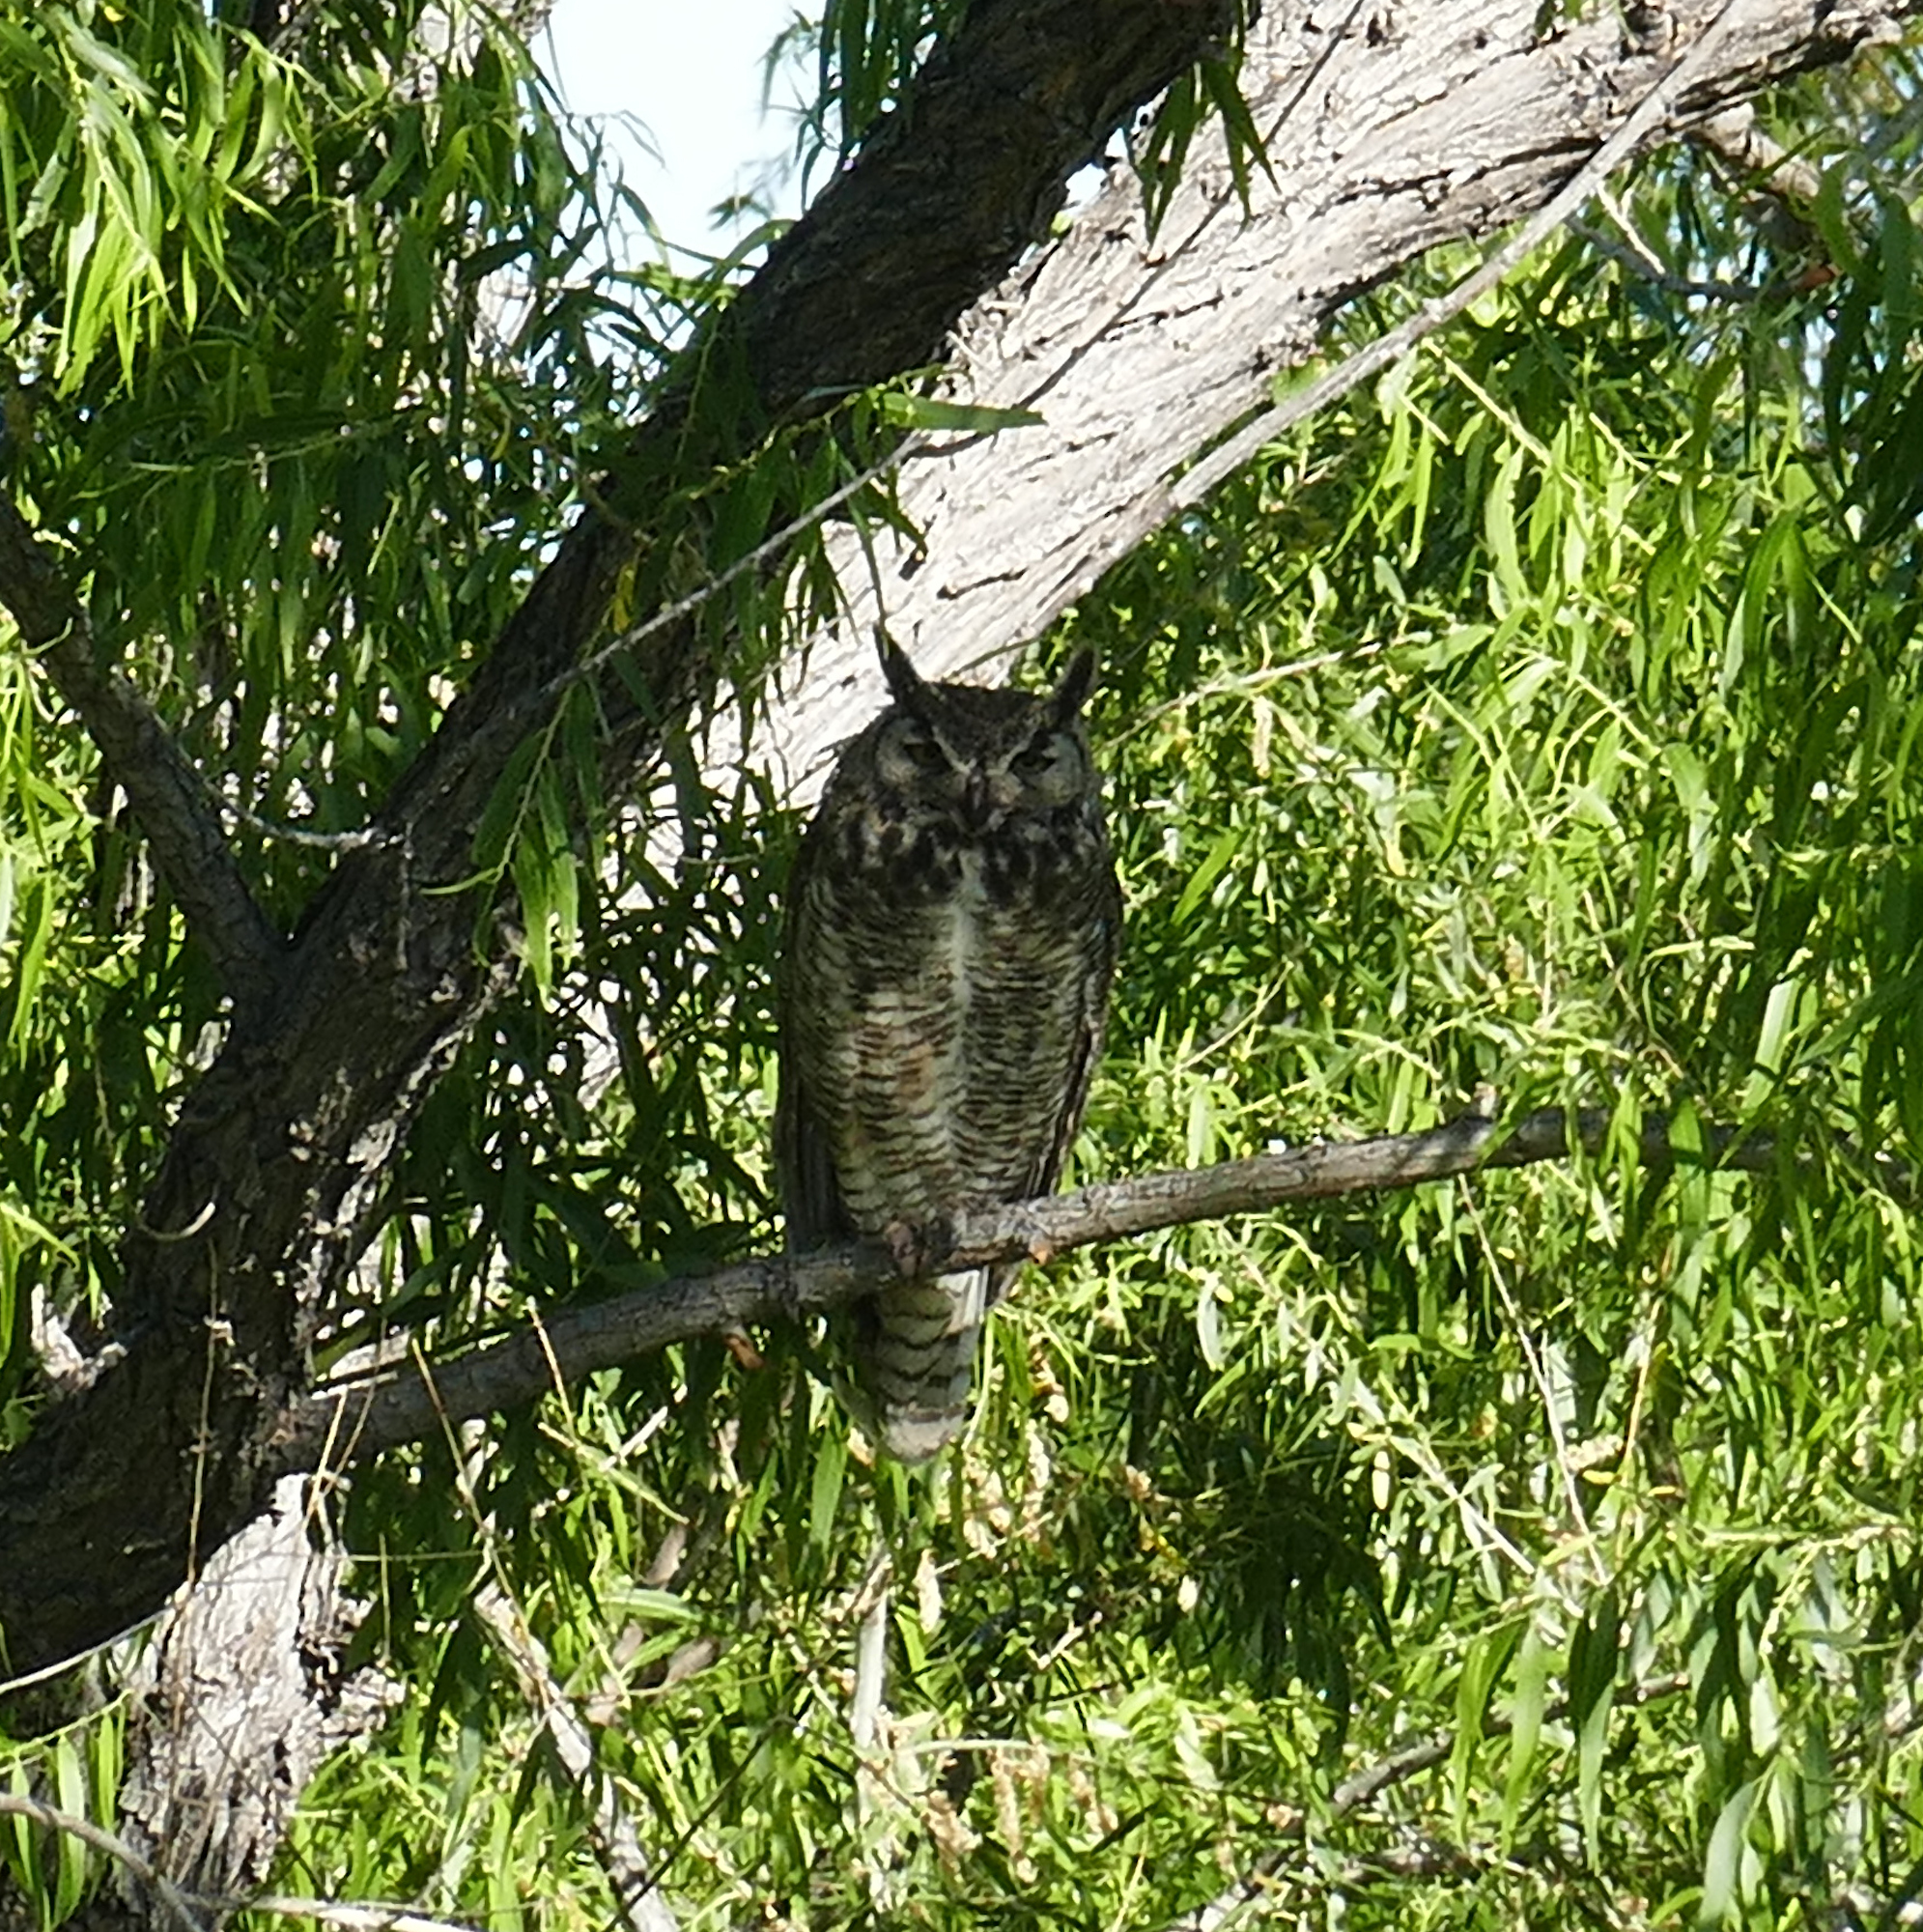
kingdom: Animalia
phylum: Chordata
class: Aves
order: Strigiformes
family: Strigidae
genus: Bubo
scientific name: Bubo virginianus
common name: Great horned owl
